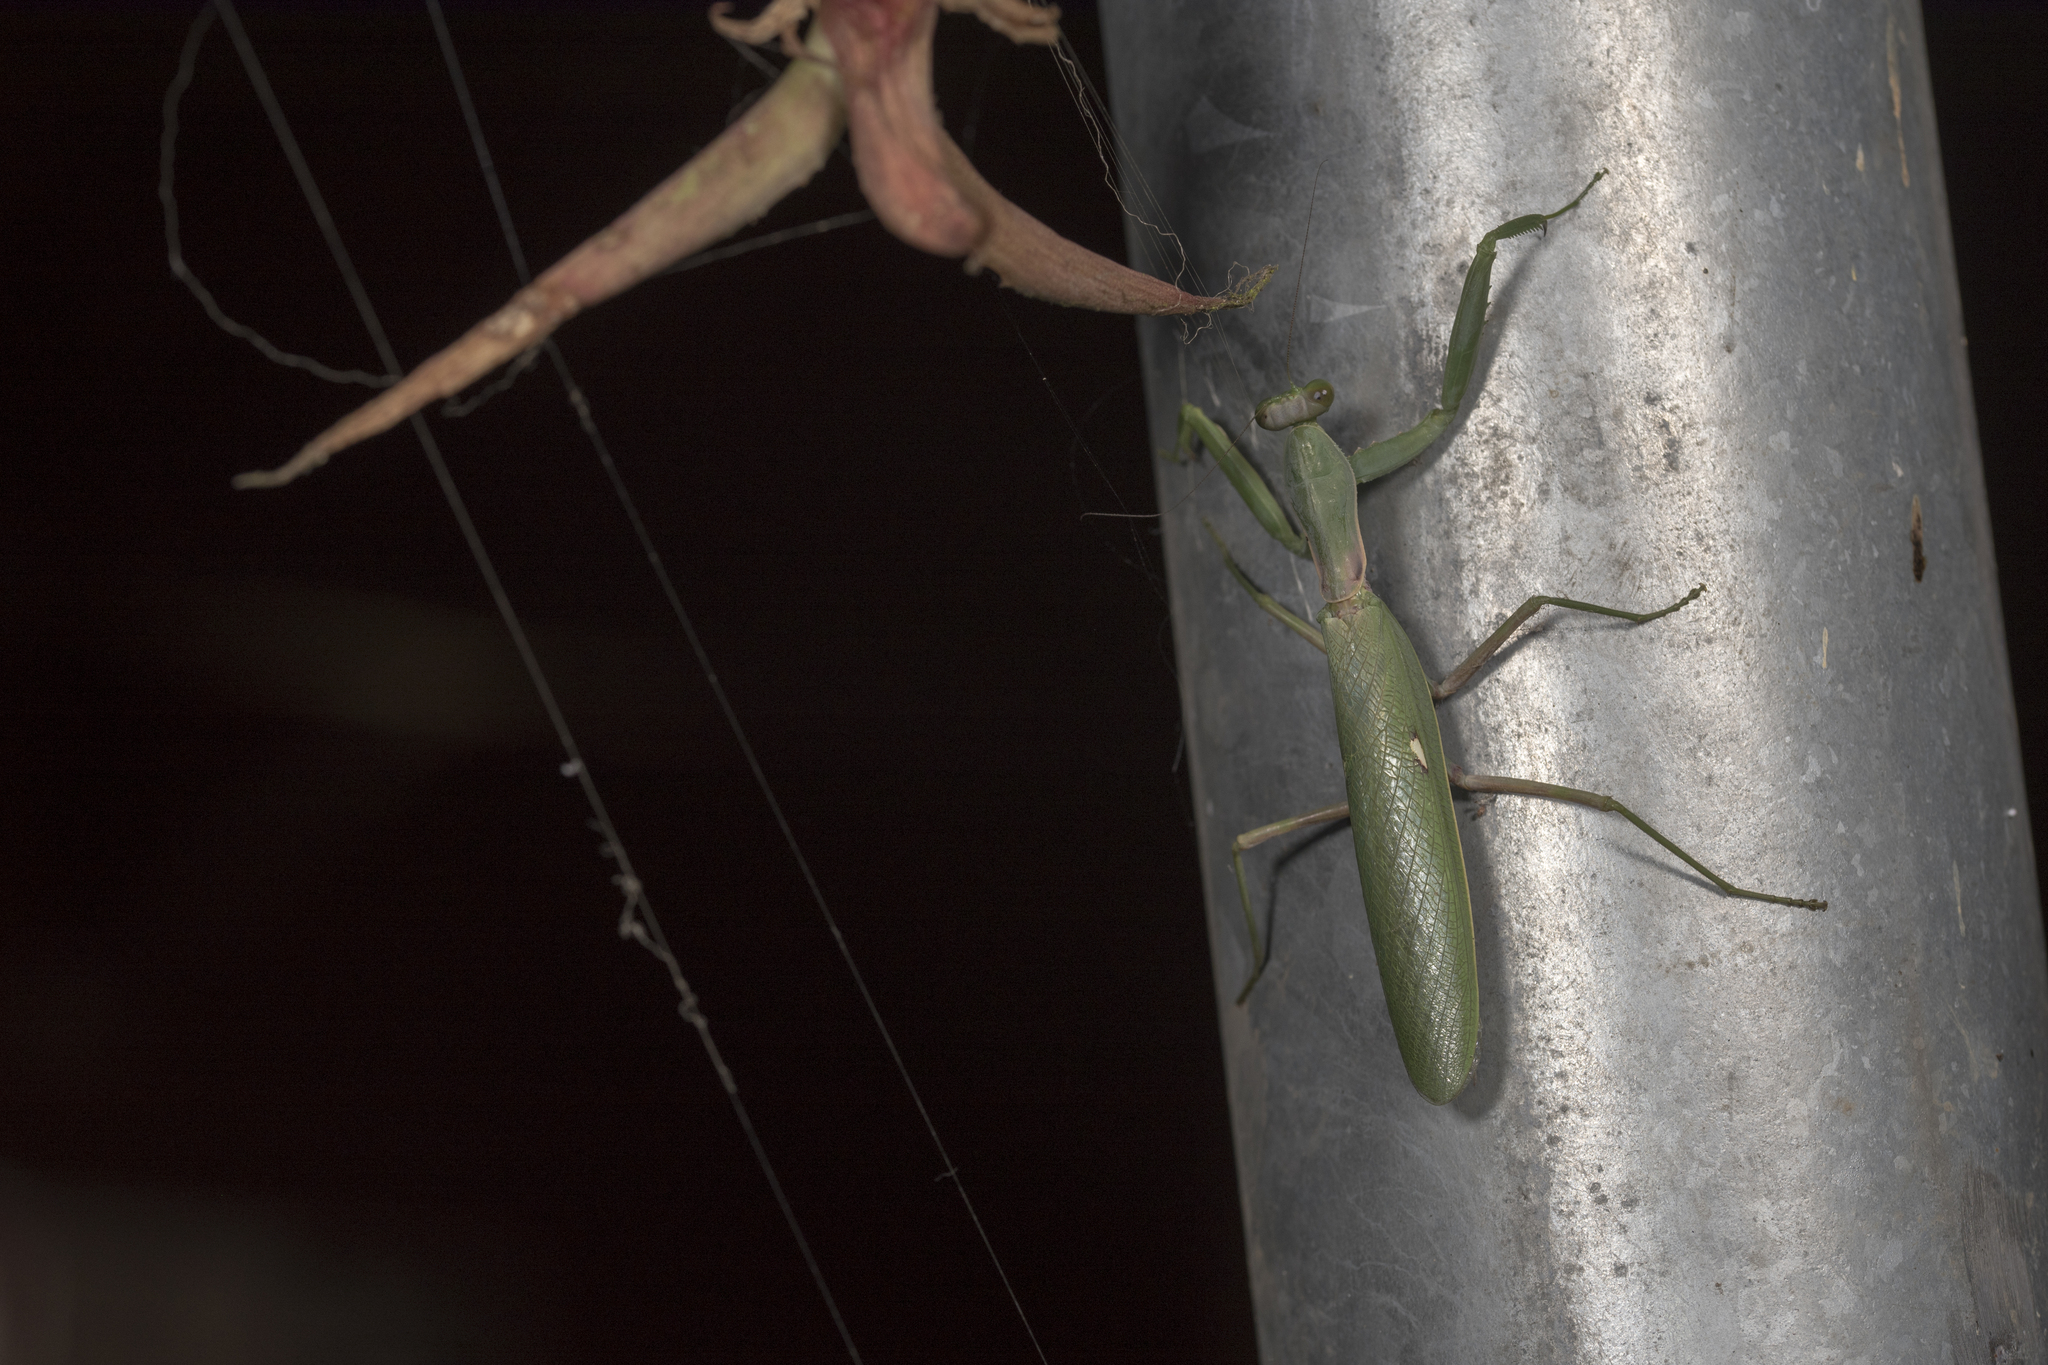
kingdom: Animalia
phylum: Arthropoda
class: Insecta
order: Mantodea
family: Mantidae
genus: Hierodula
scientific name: Hierodula patellifera
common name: Asian mantis
